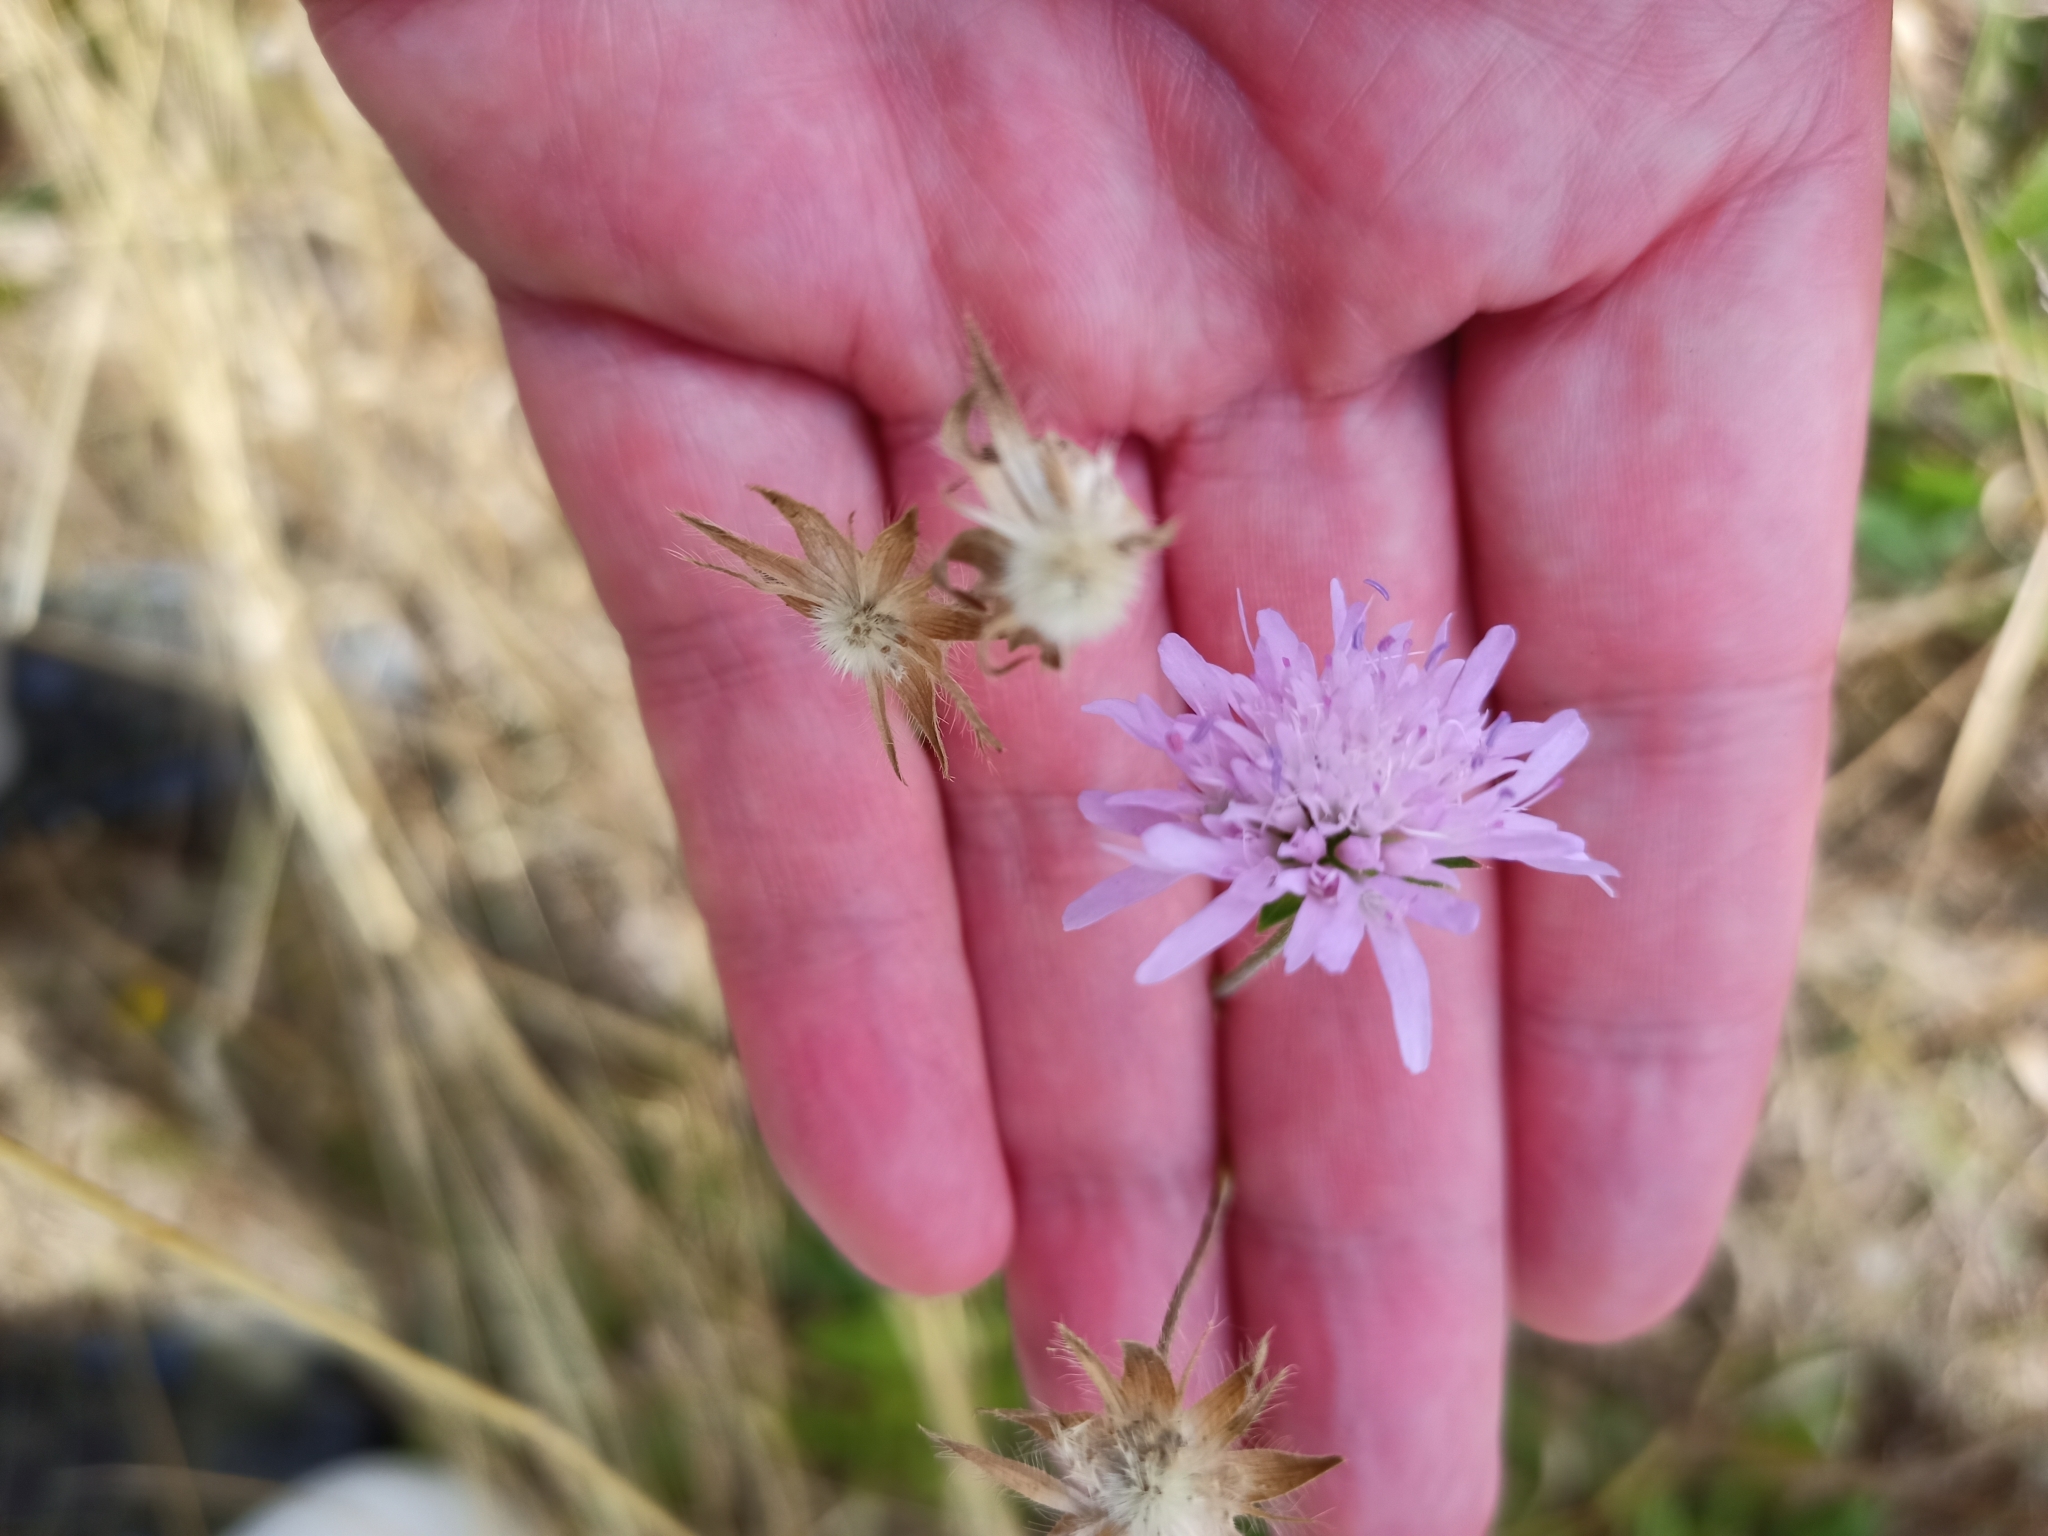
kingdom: Plantae
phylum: Tracheophyta
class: Magnoliopsida
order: Dipsacales
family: Caprifoliaceae
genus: Knautia
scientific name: Knautia arvensis
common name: Field scabiosa
